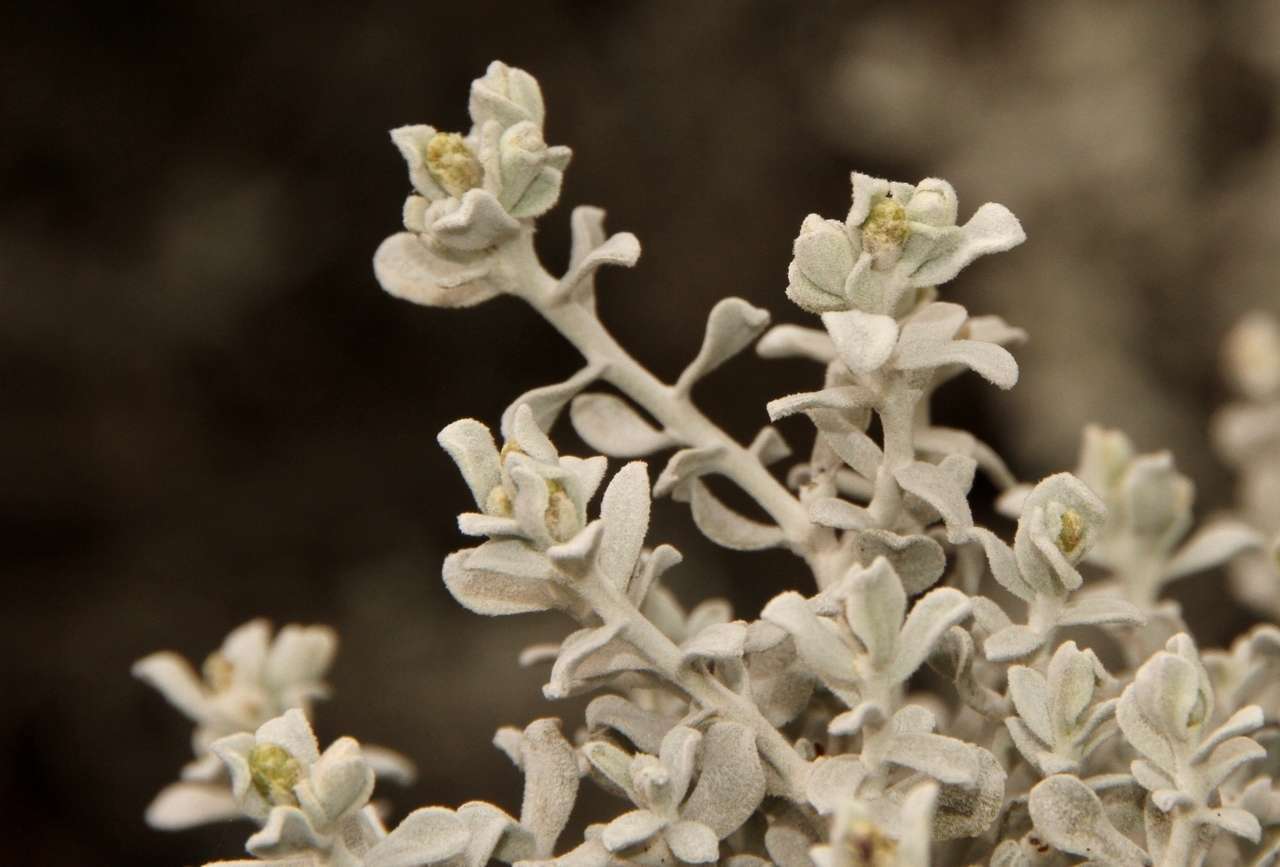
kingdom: Plantae
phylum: Tracheophyta
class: Magnoliopsida
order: Asterales
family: Asteraceae
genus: Cratystylis
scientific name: Cratystylis conocephala
